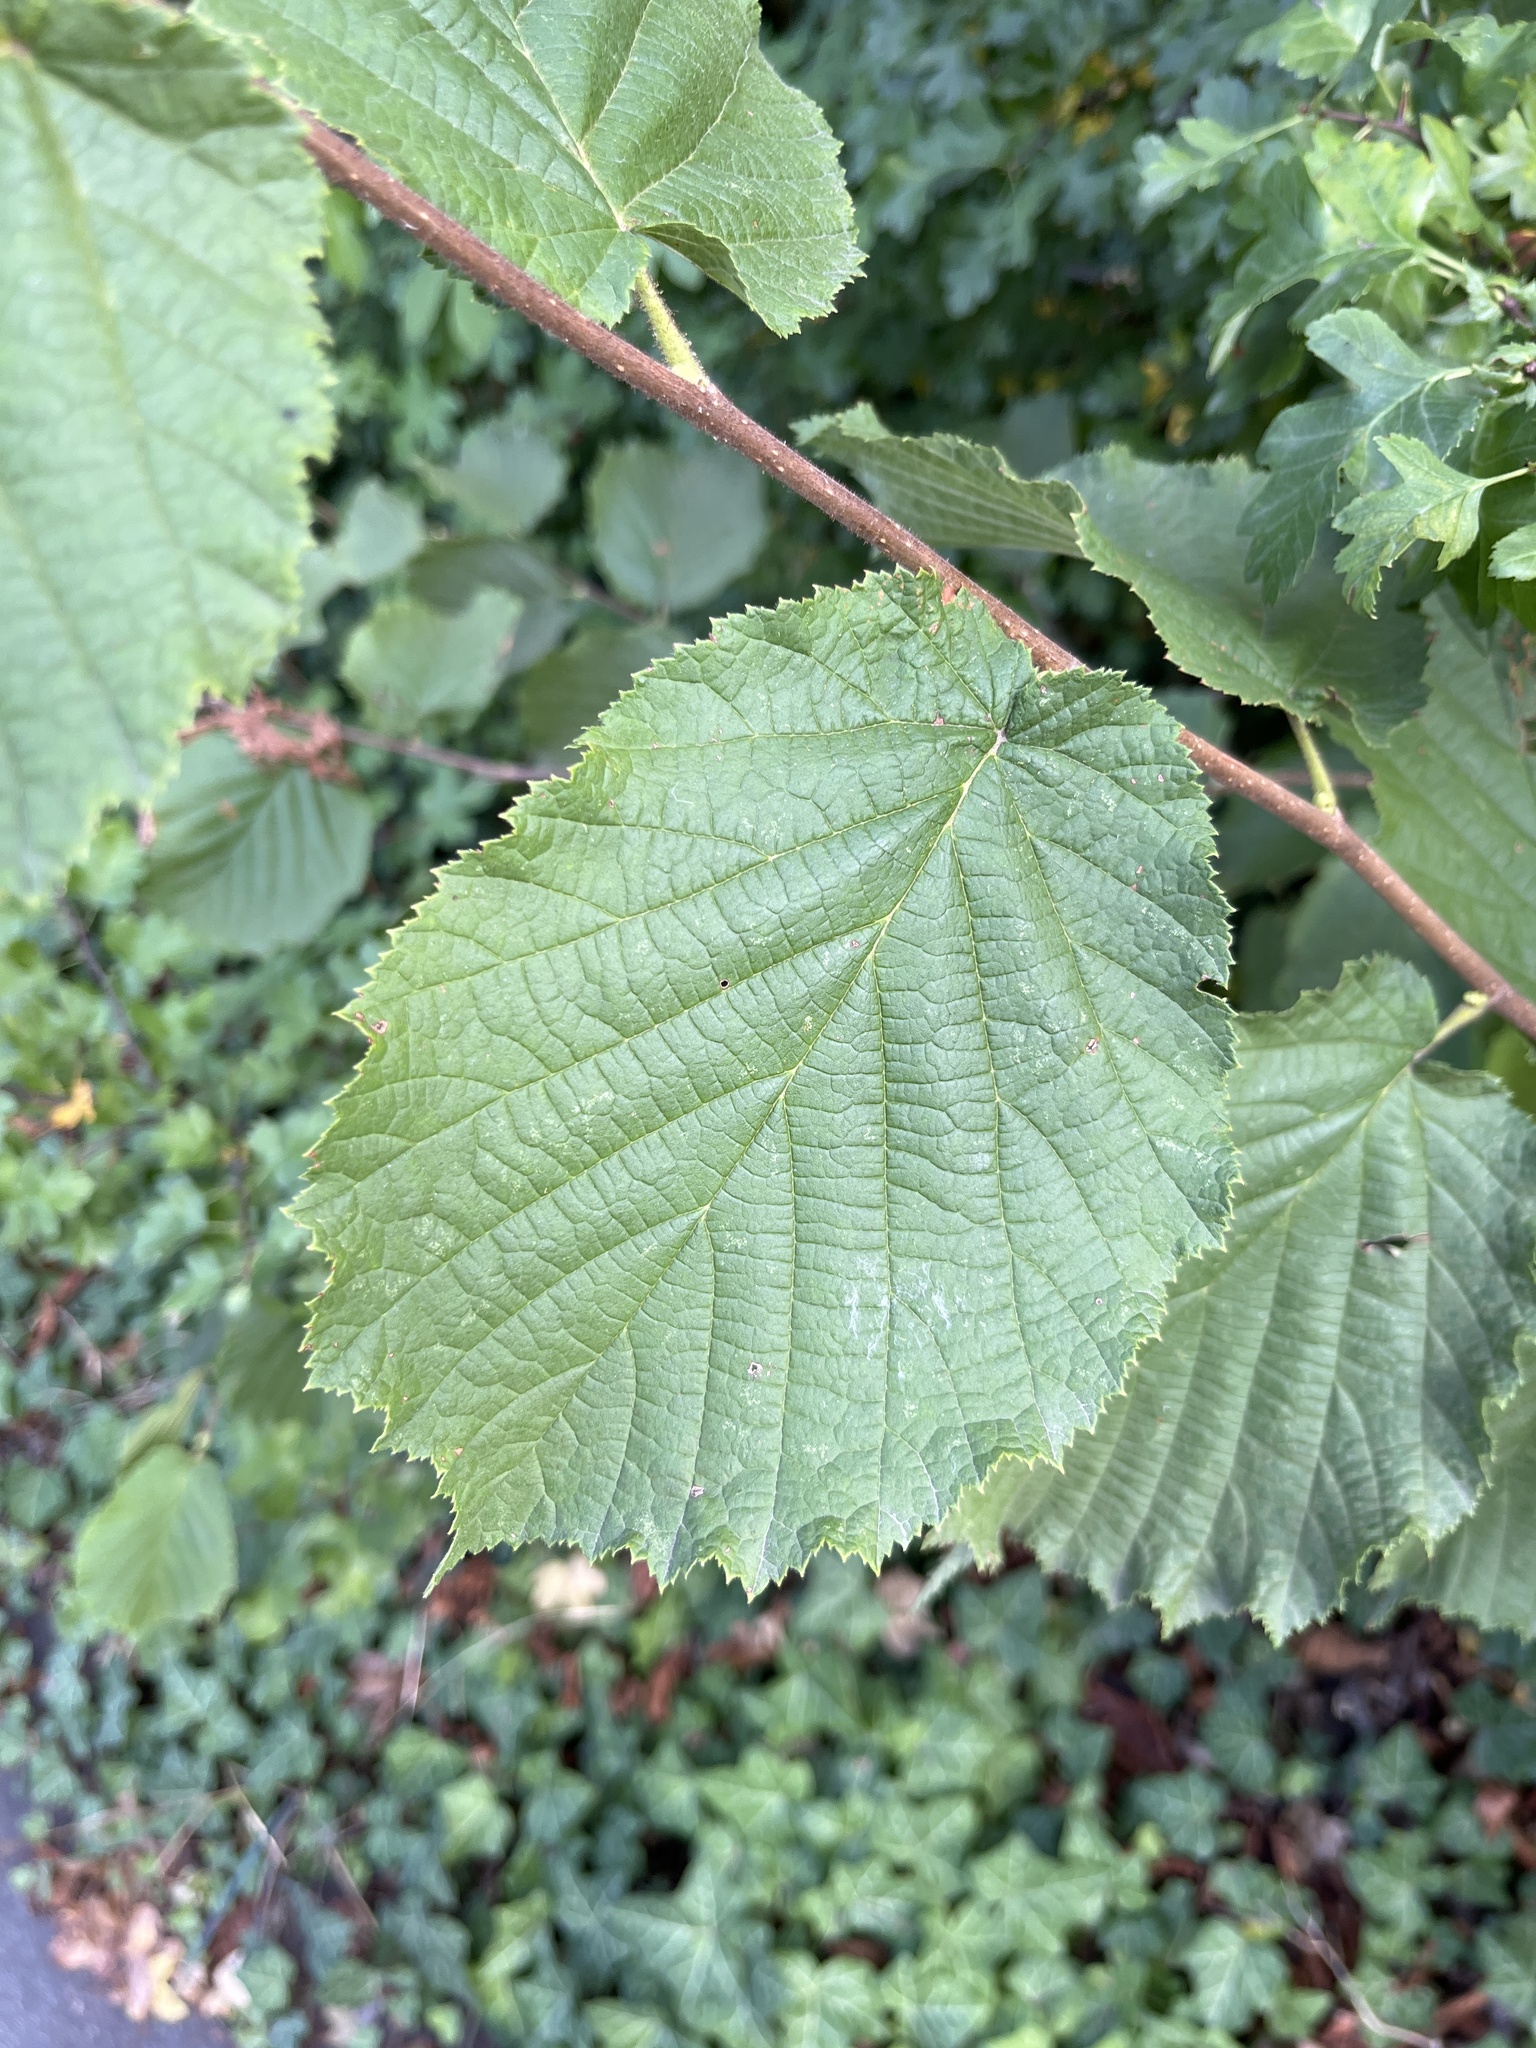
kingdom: Plantae
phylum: Tracheophyta
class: Magnoliopsida
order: Fagales
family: Betulaceae
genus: Corylus
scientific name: Corylus avellana
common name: European hazel
